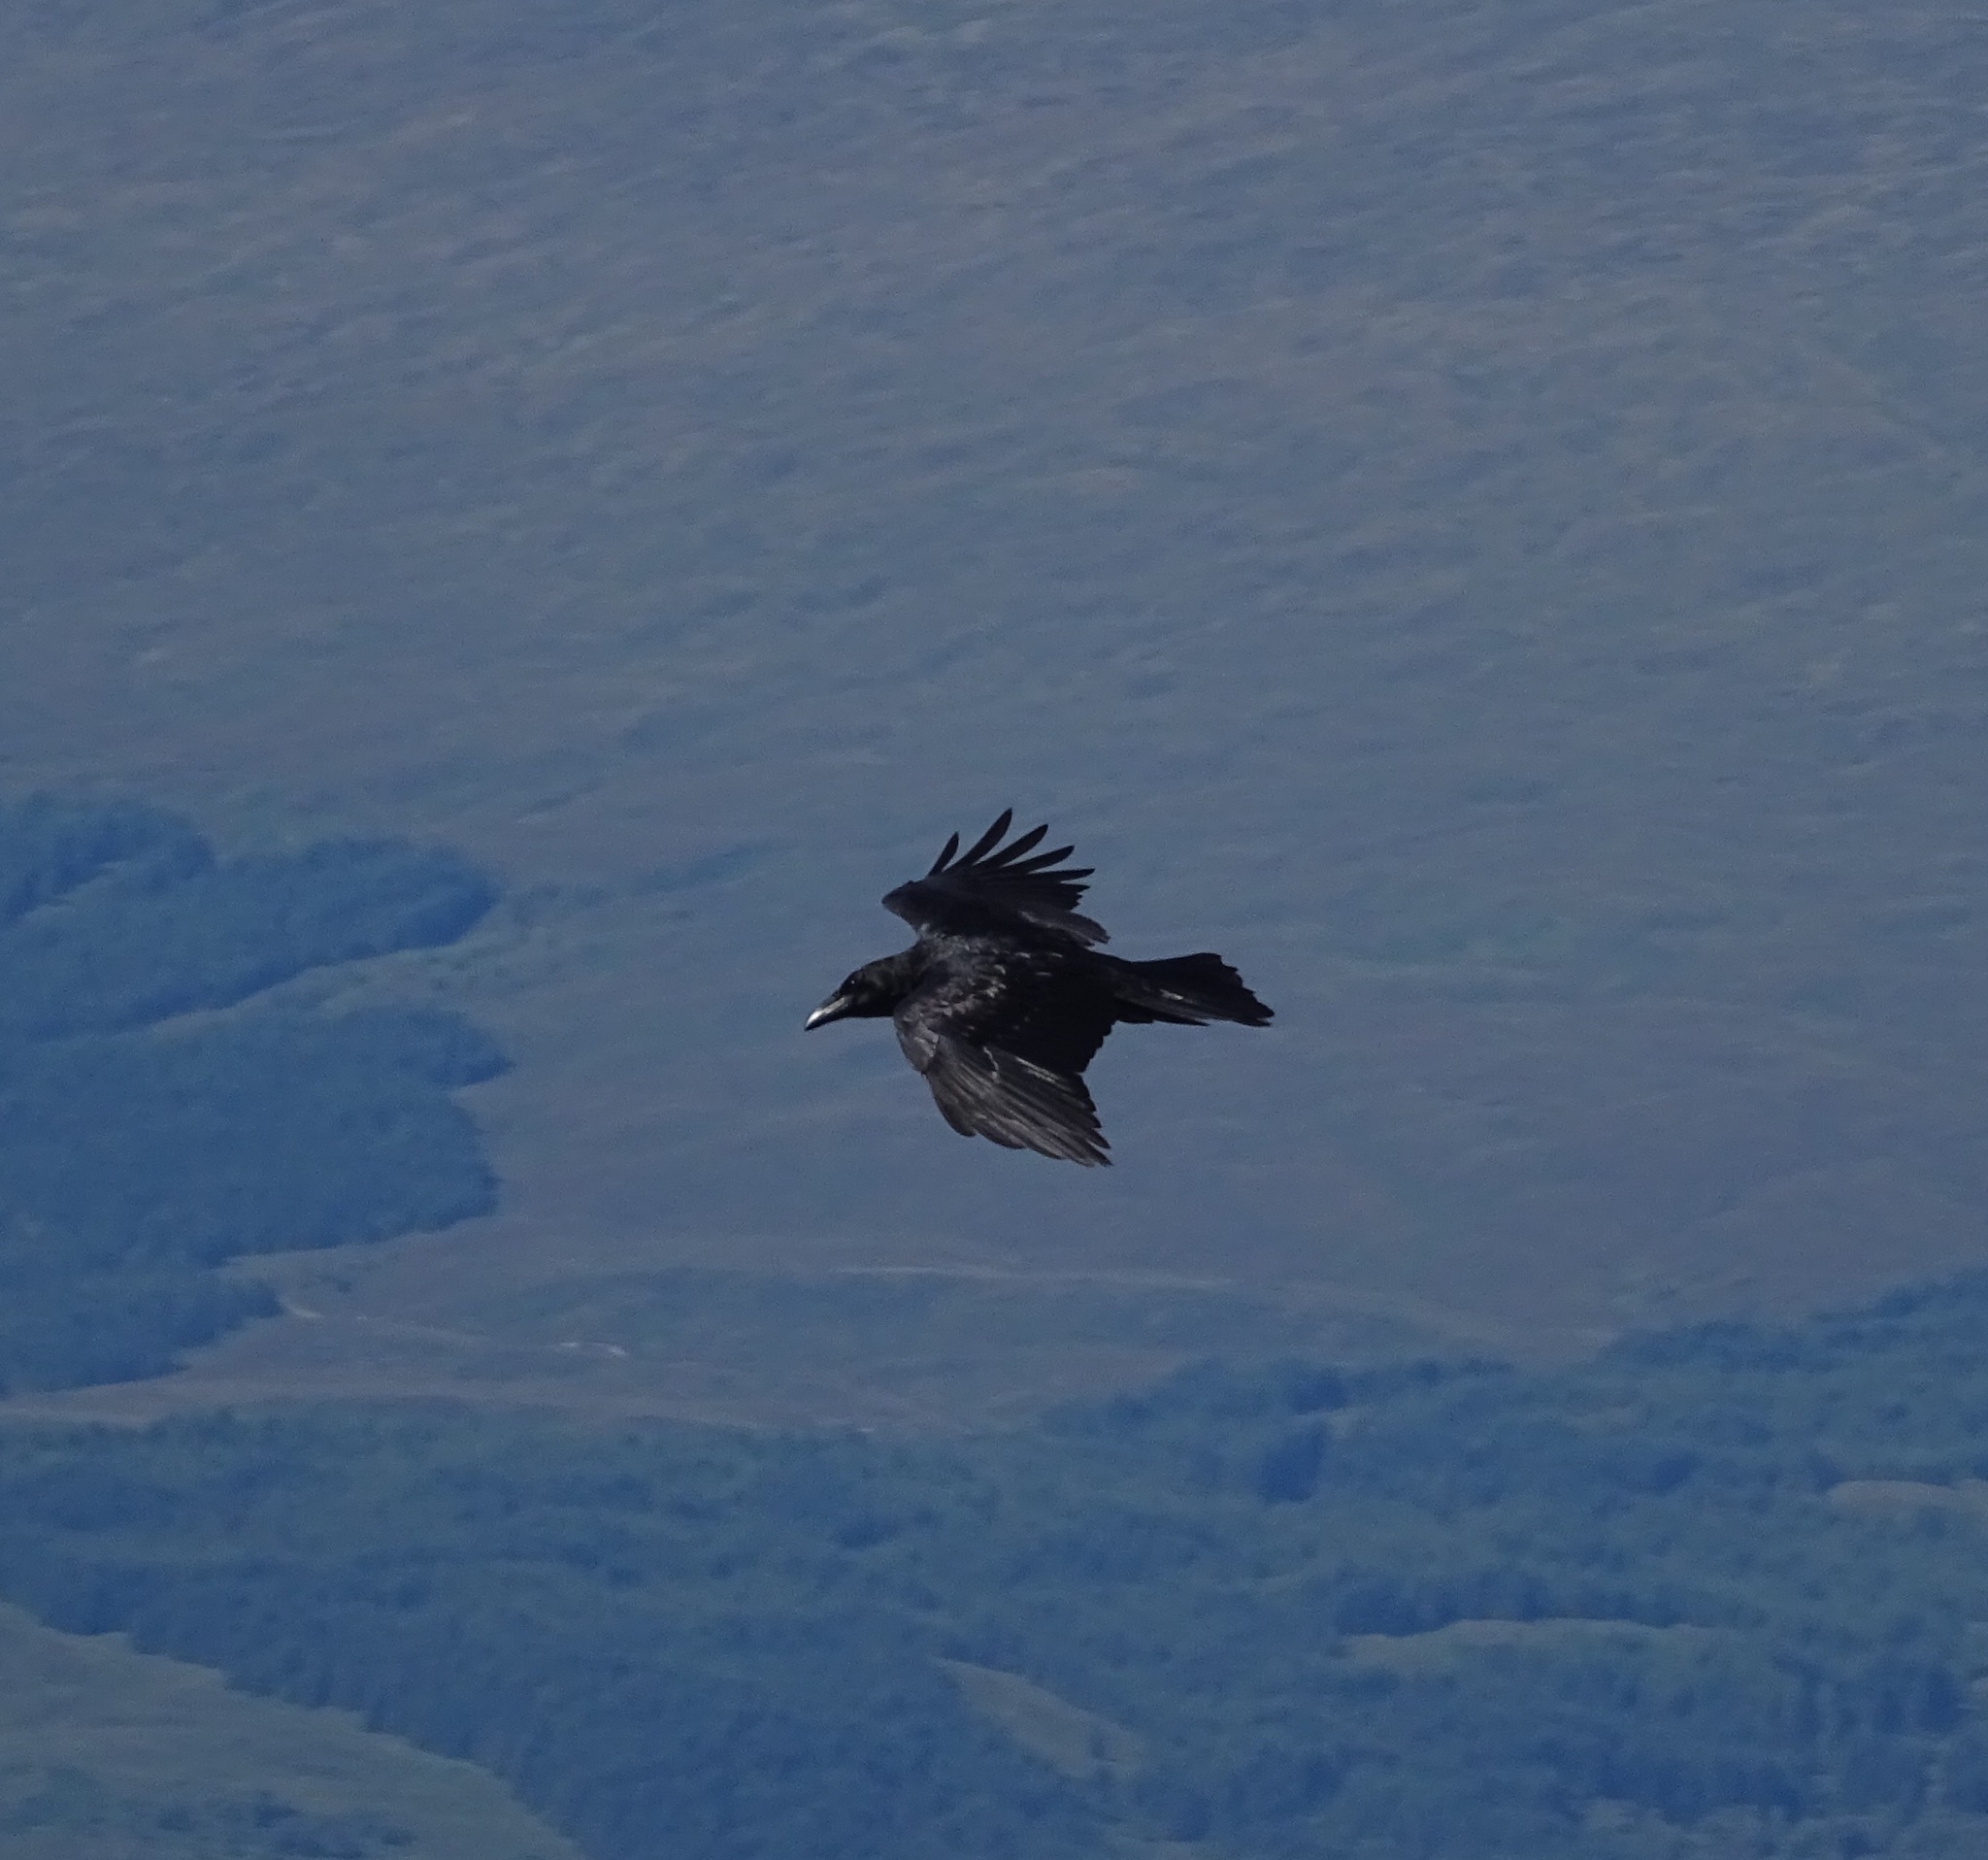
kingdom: Animalia
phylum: Chordata
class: Aves
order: Passeriformes
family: Corvidae
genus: Corvus
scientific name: Corvus corax
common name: Common raven
